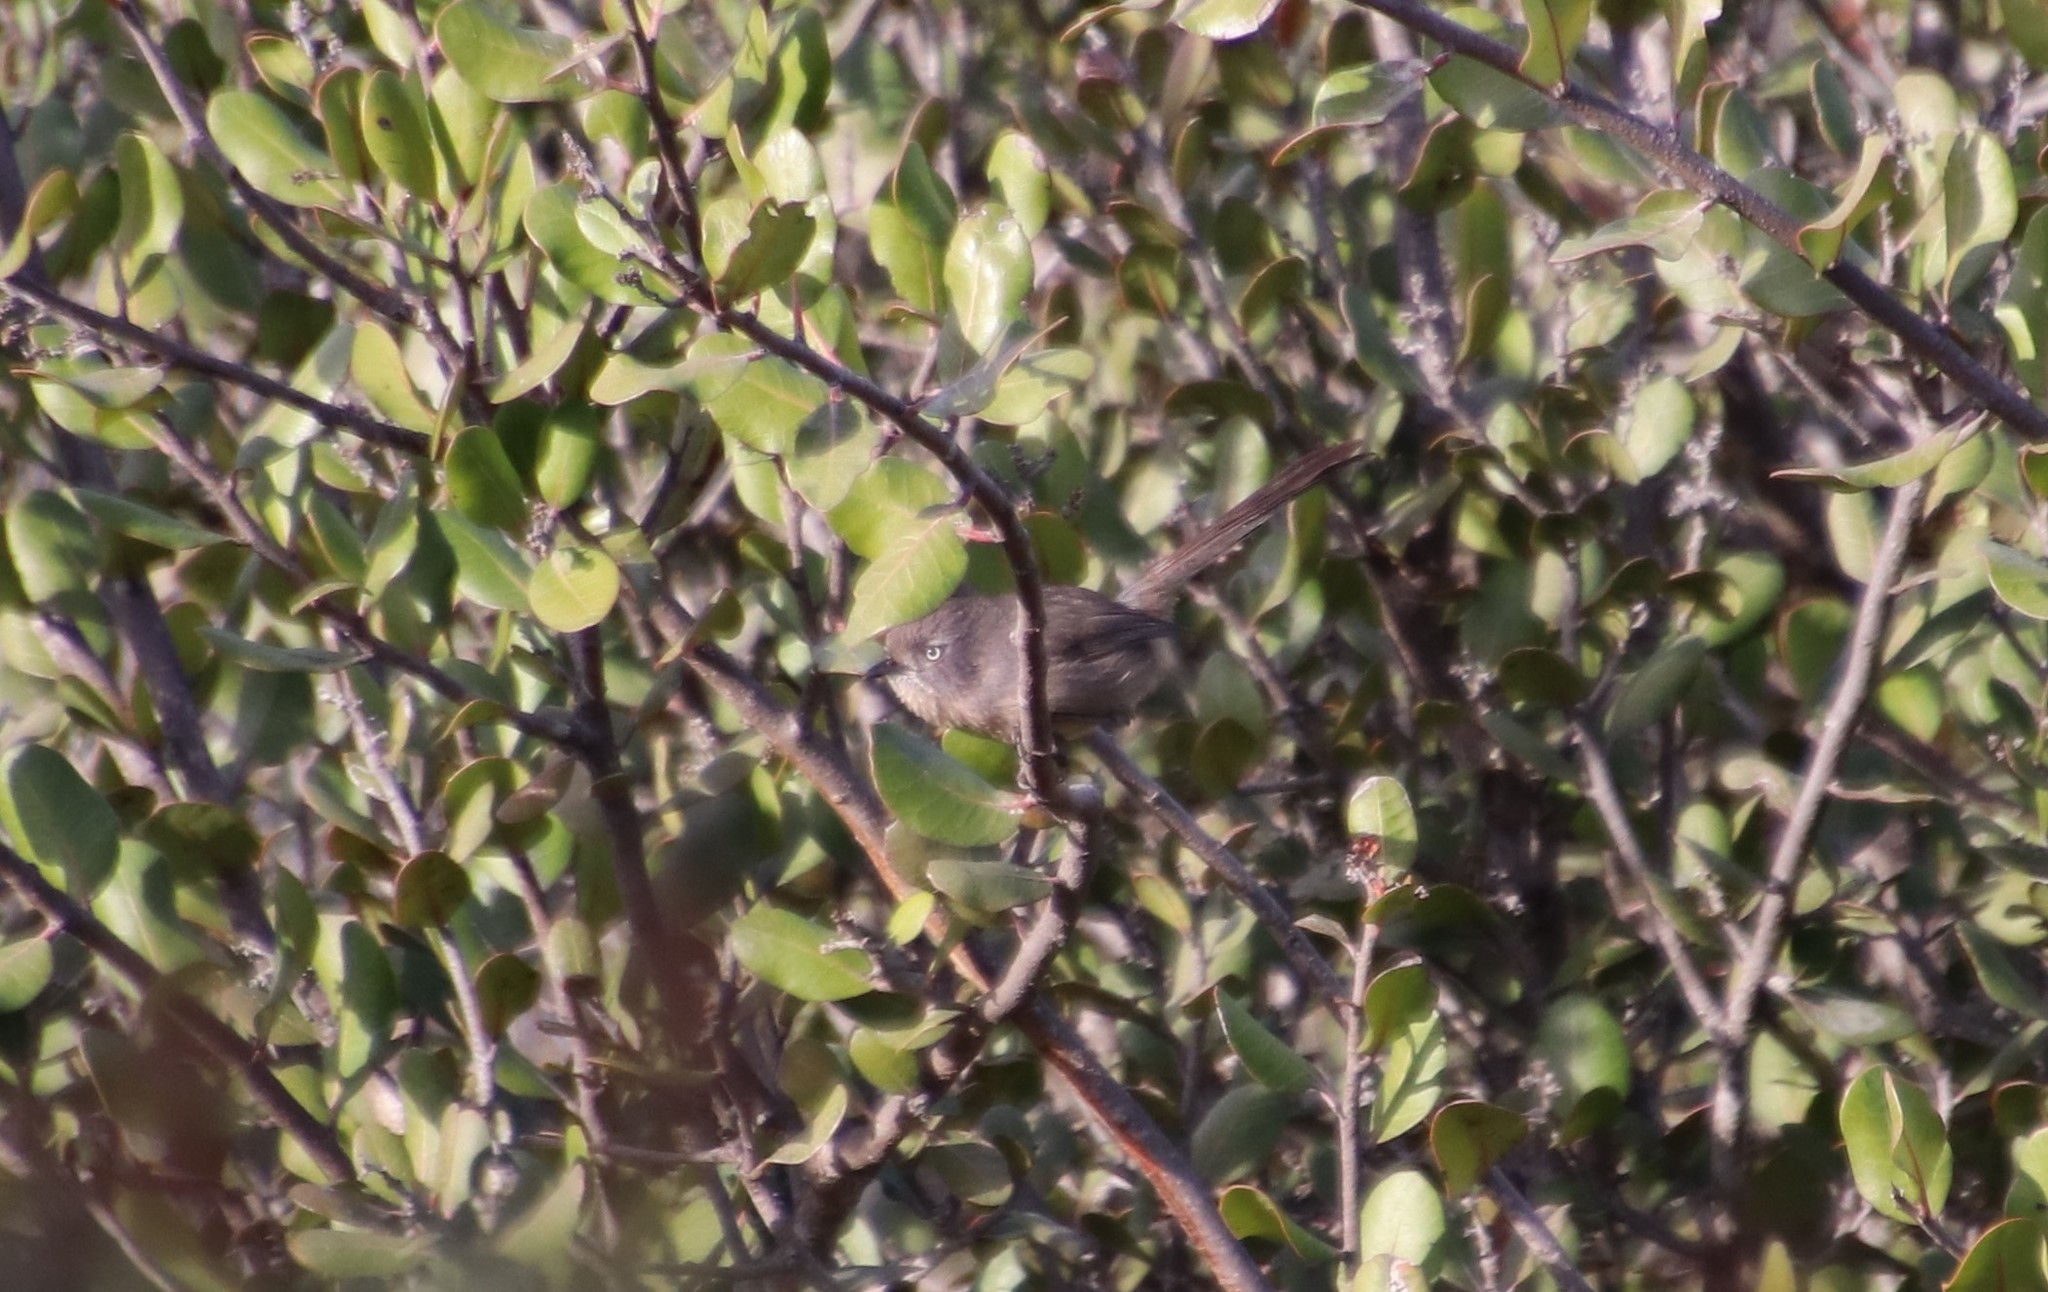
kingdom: Animalia
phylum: Chordata
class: Aves
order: Passeriformes
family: Sylviidae
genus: Chamaea
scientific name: Chamaea fasciata
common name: Wrentit
